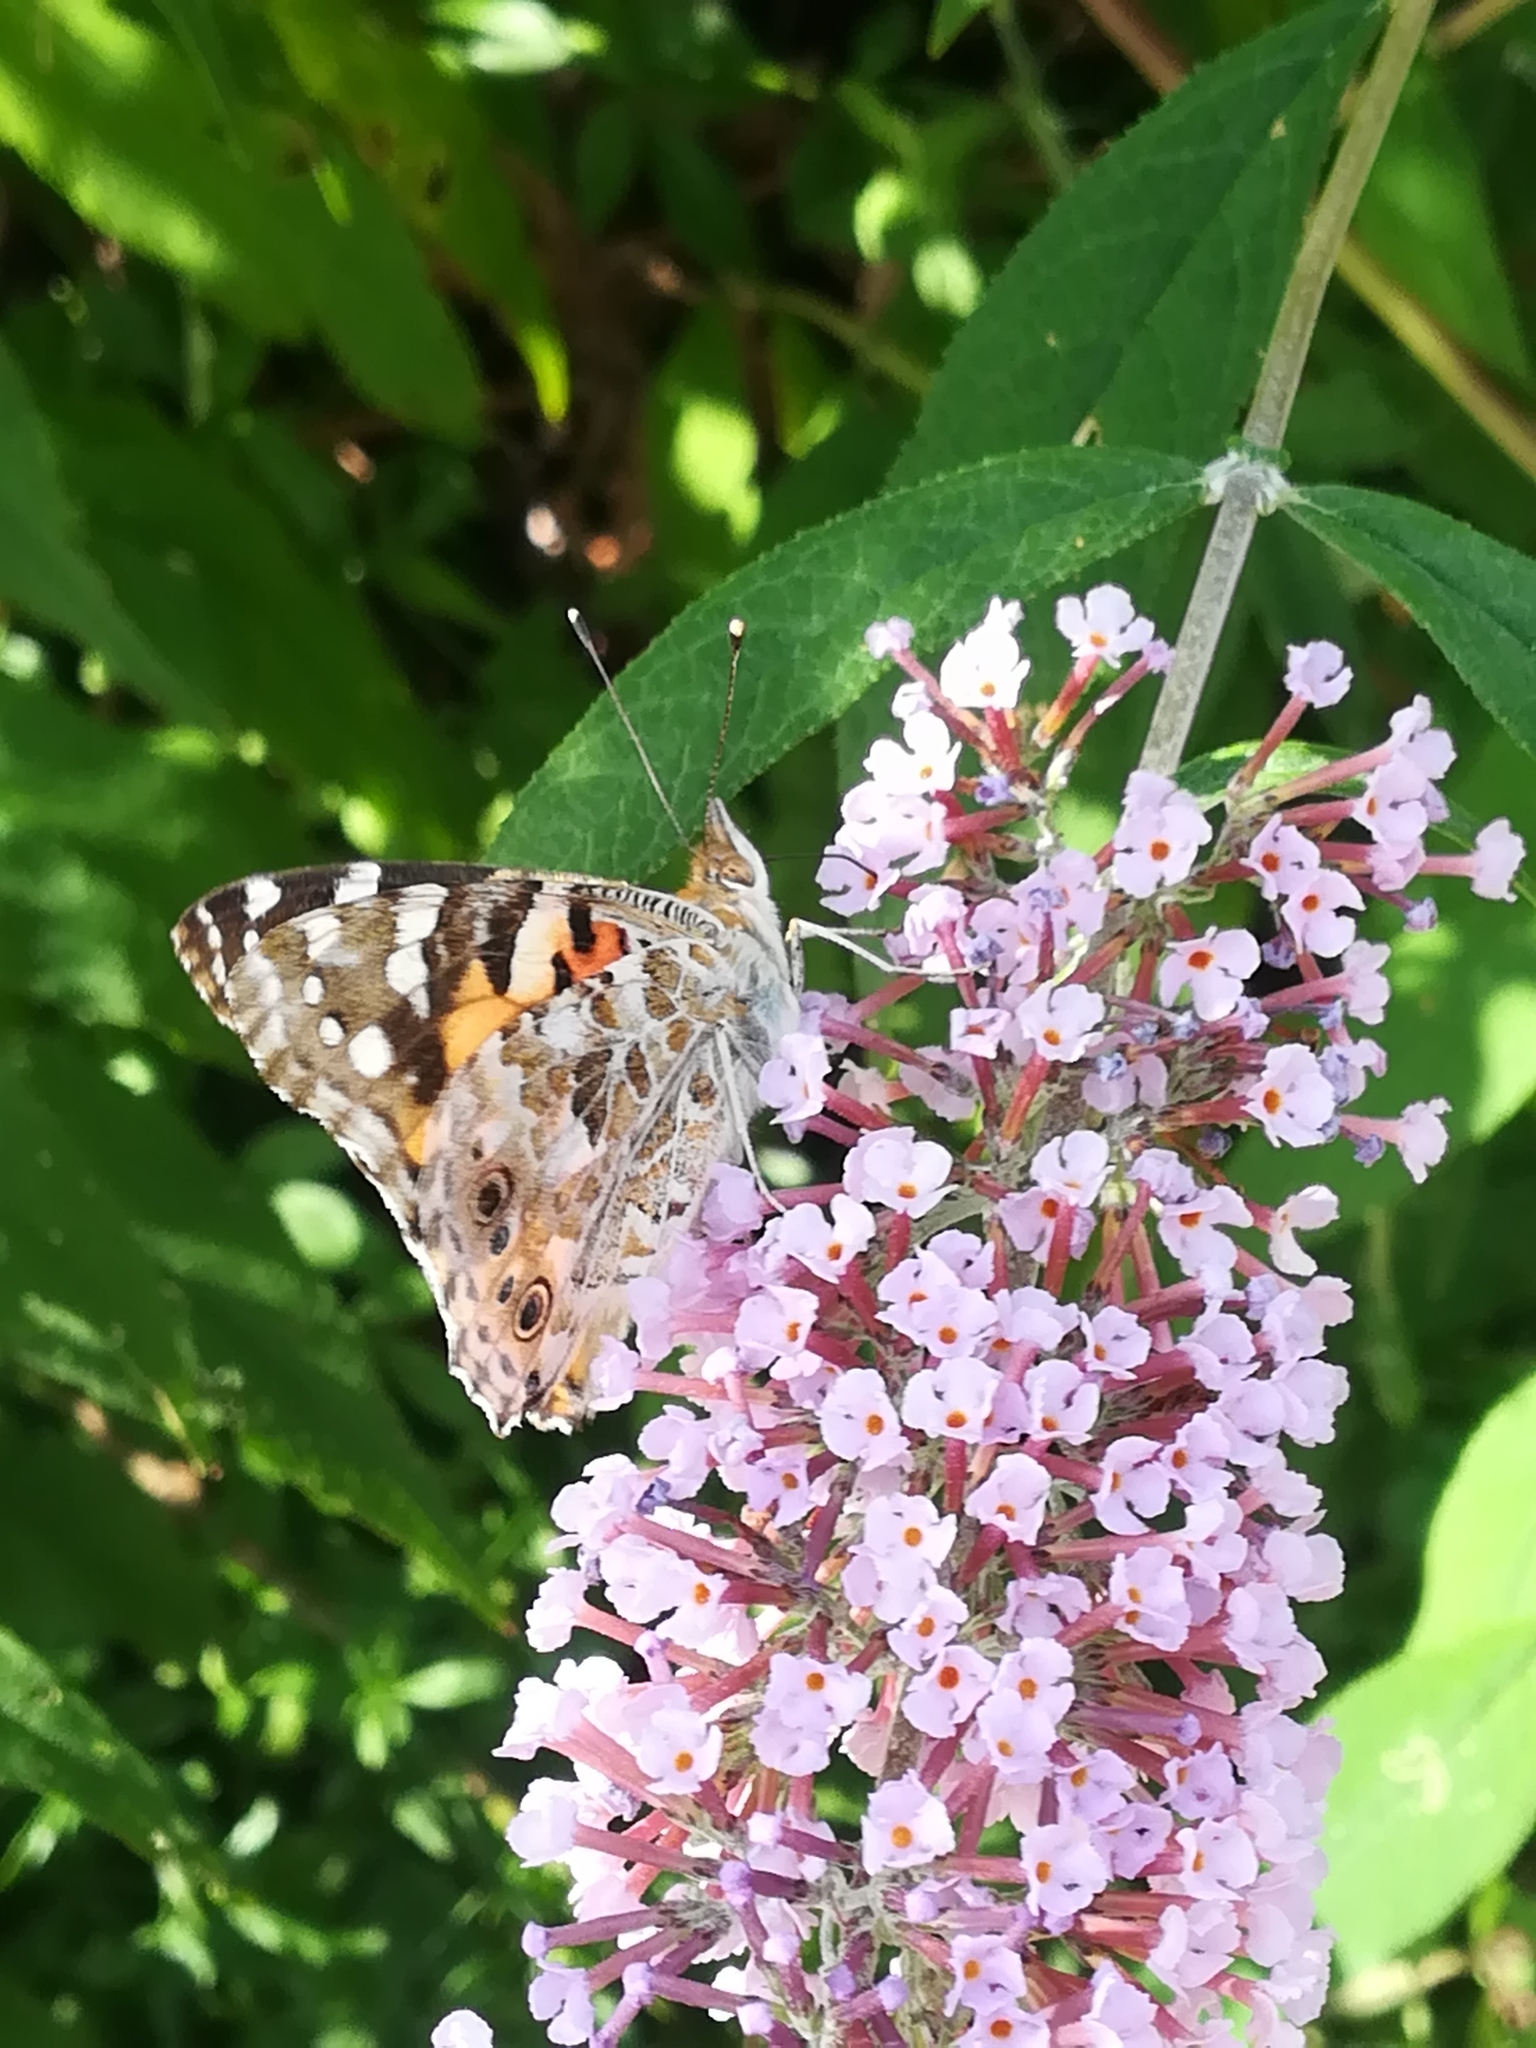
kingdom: Animalia
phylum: Arthropoda
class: Insecta
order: Lepidoptera
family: Nymphalidae
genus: Vanessa
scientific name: Vanessa cardui
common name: Painted lady
